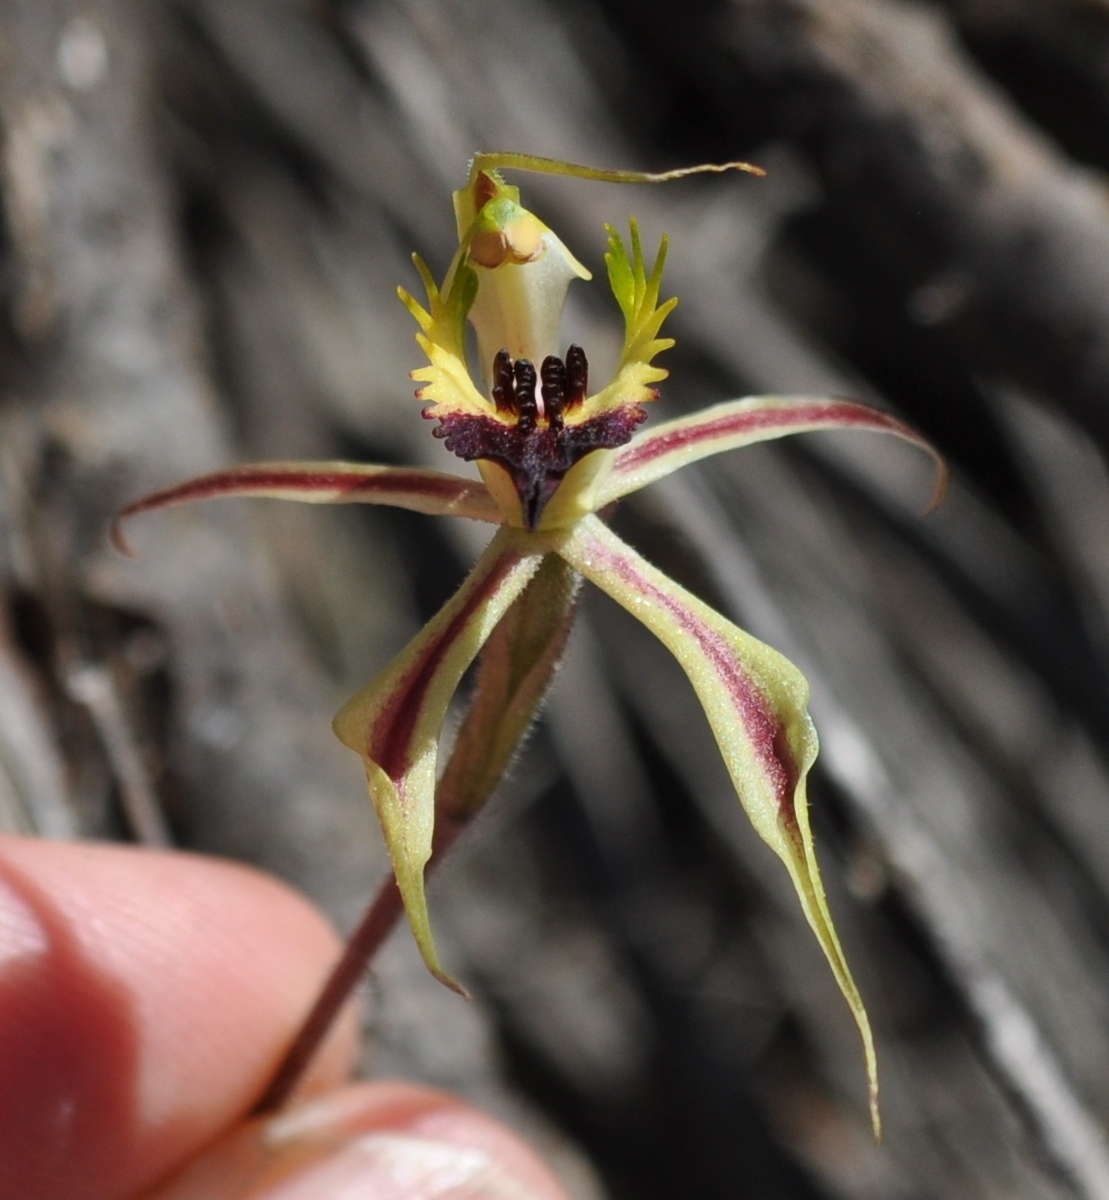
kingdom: Plantae
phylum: Tracheophyta
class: Liliopsida
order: Asparagales
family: Orchidaceae
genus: Caladenia
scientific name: Caladenia stricta
